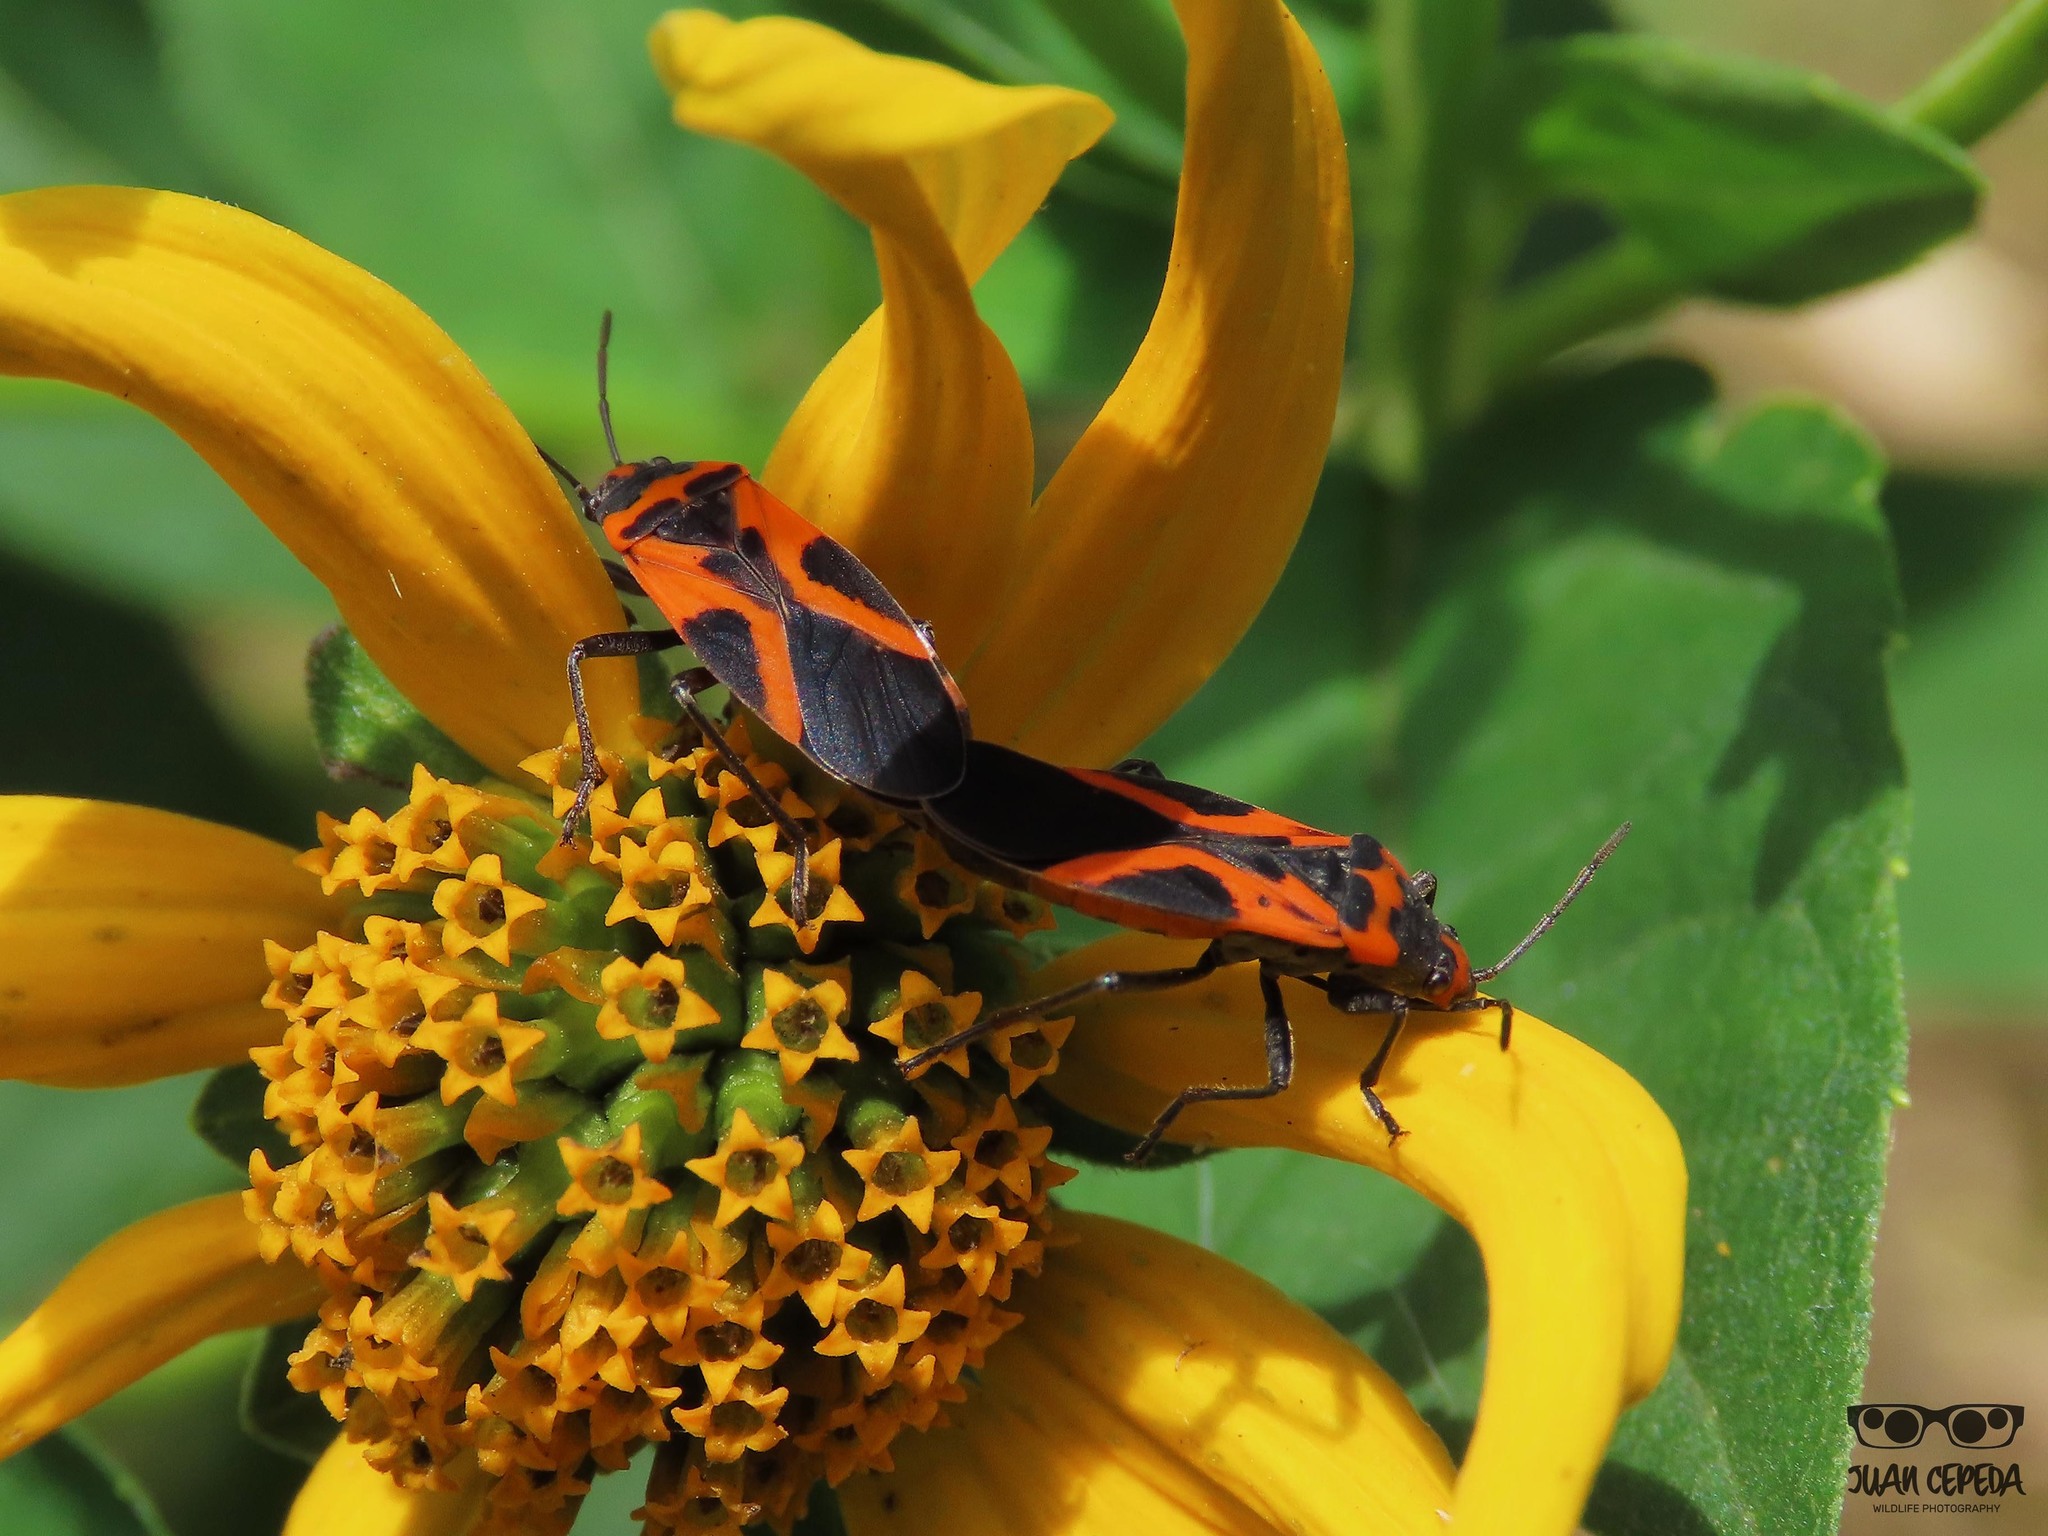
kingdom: Animalia
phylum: Arthropoda
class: Insecta
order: Hemiptera
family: Lygaeidae
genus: Lygaeus
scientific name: Lygaeus turcicus
